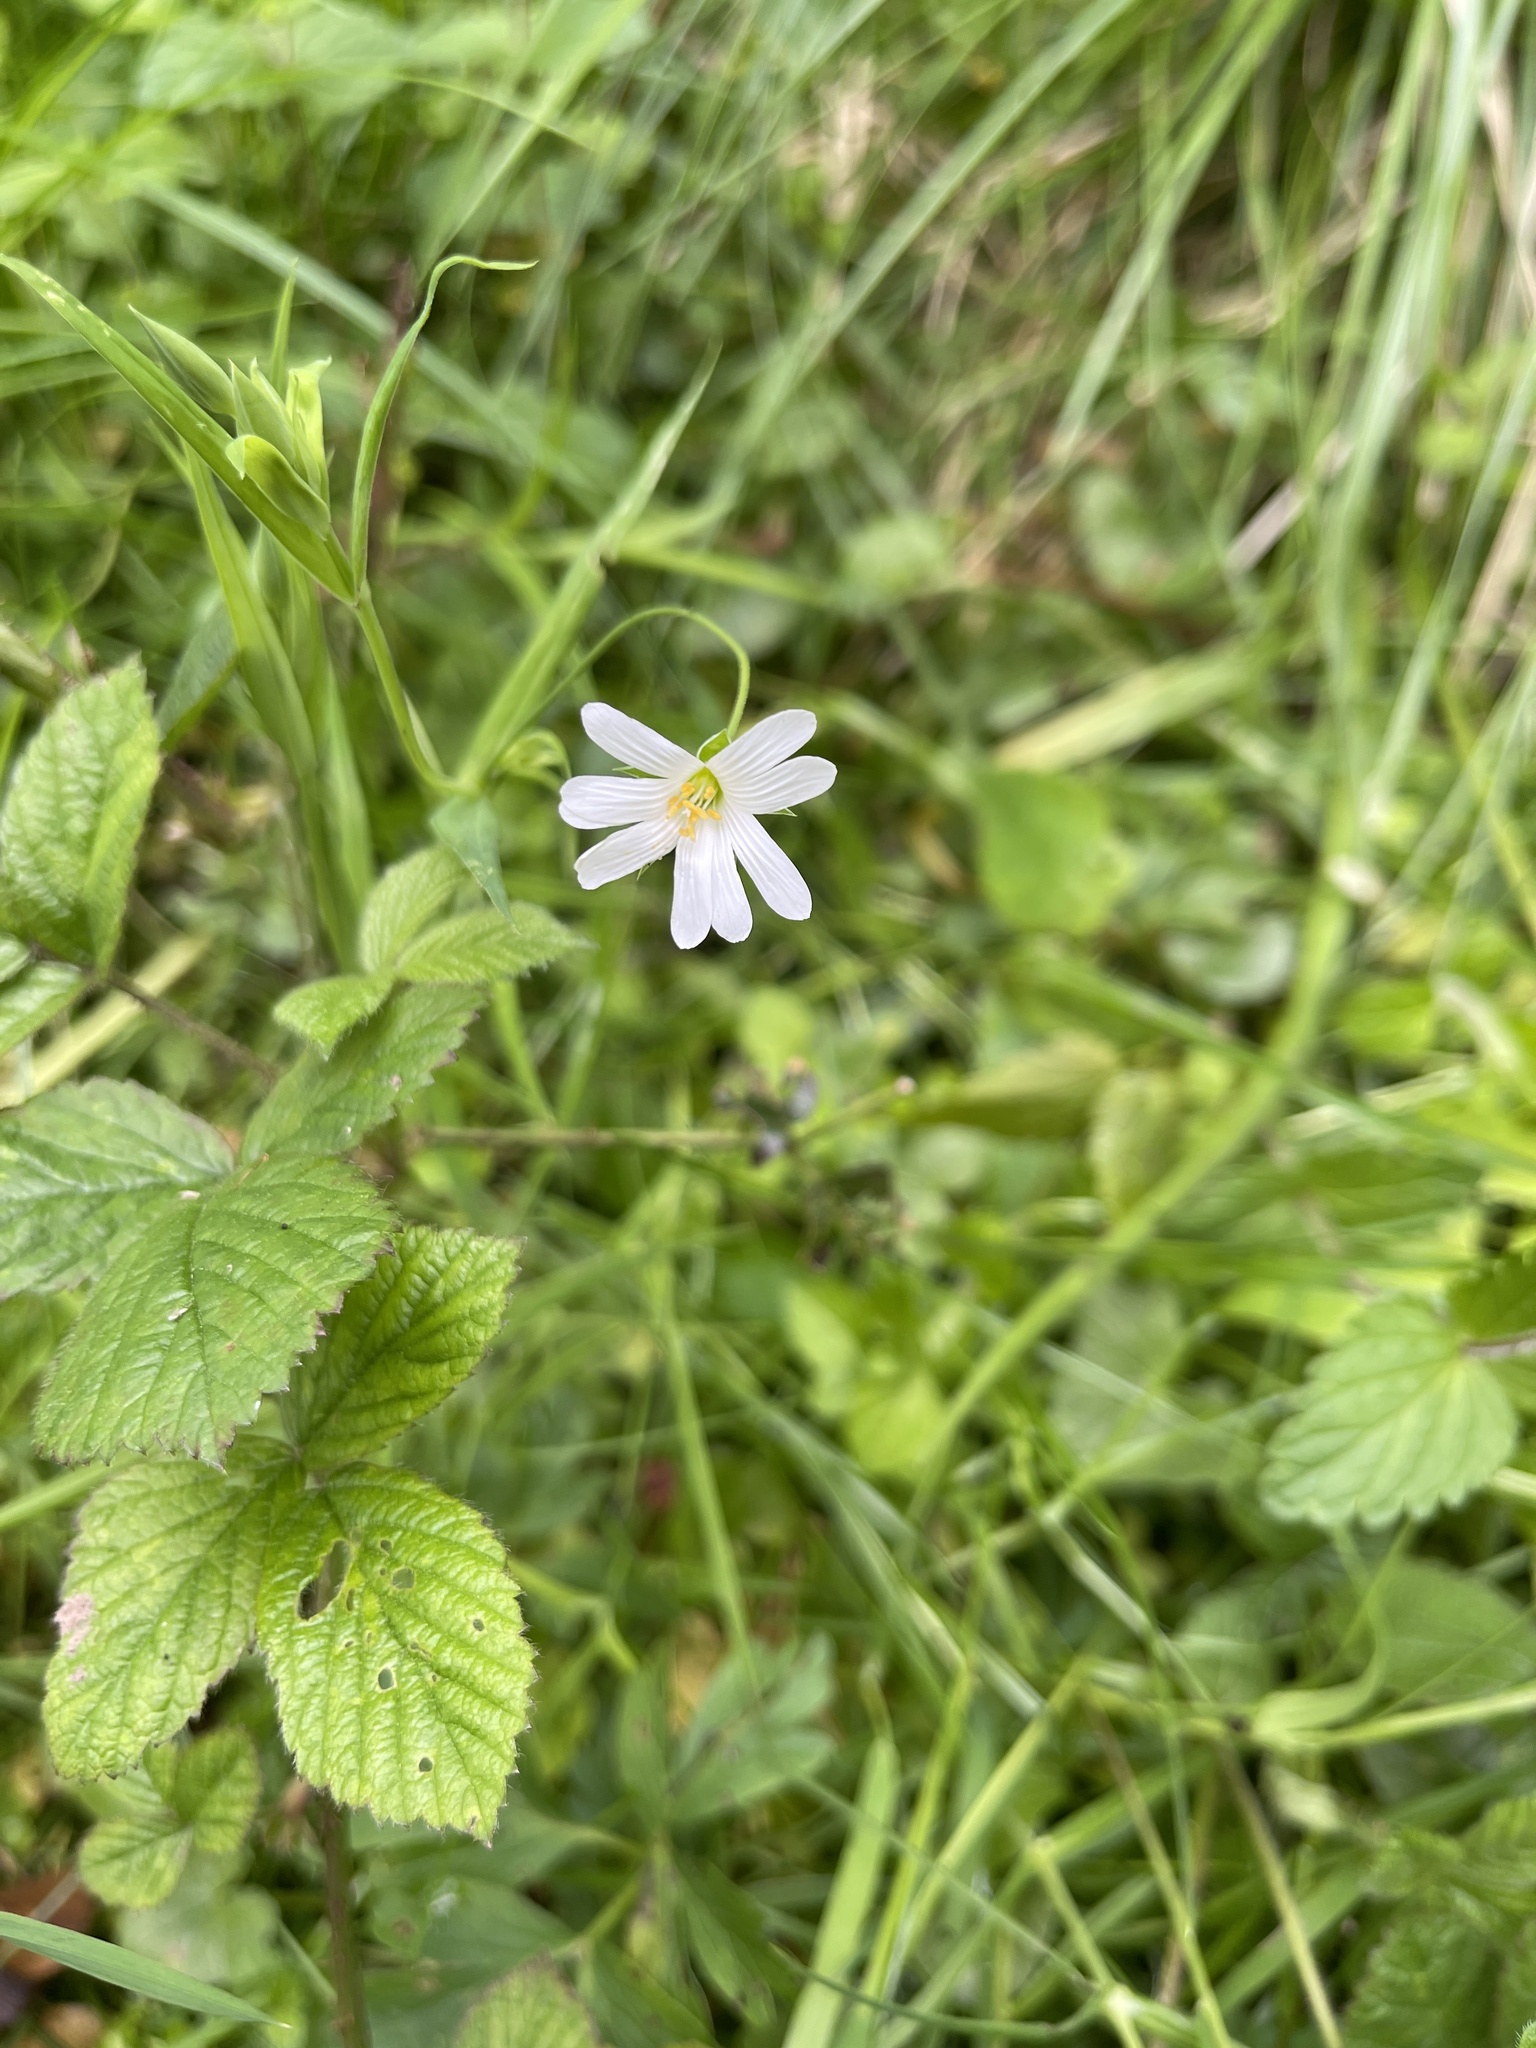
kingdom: Plantae
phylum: Tracheophyta
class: Magnoliopsida
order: Caryophyllales
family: Caryophyllaceae
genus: Rabelera
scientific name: Rabelera holostea
